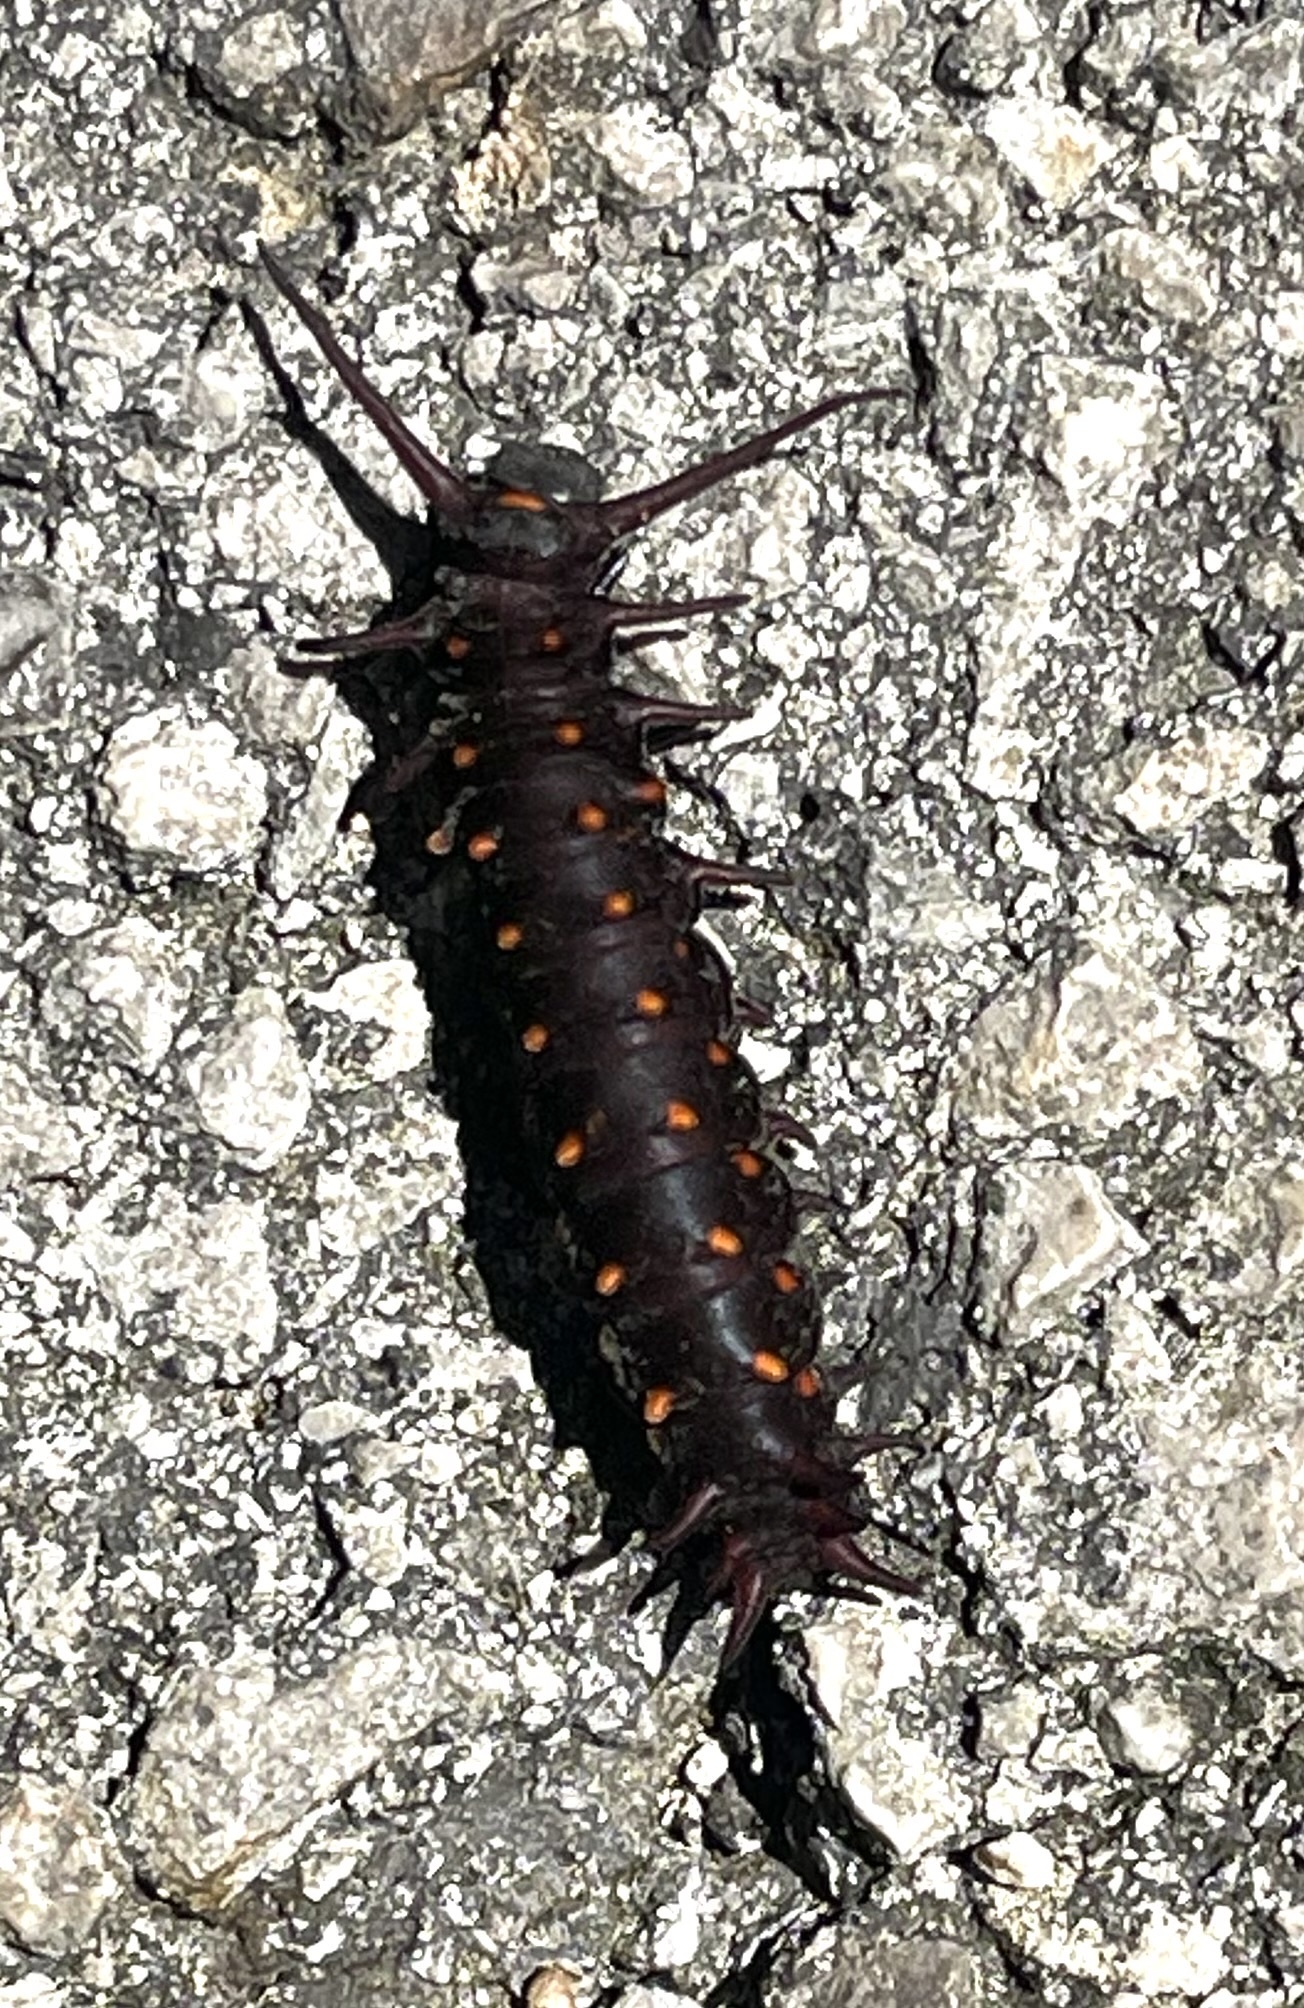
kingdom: Animalia
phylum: Arthropoda
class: Insecta
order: Lepidoptera
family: Papilionidae
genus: Battus
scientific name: Battus philenor
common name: Pipevine swallowtail
